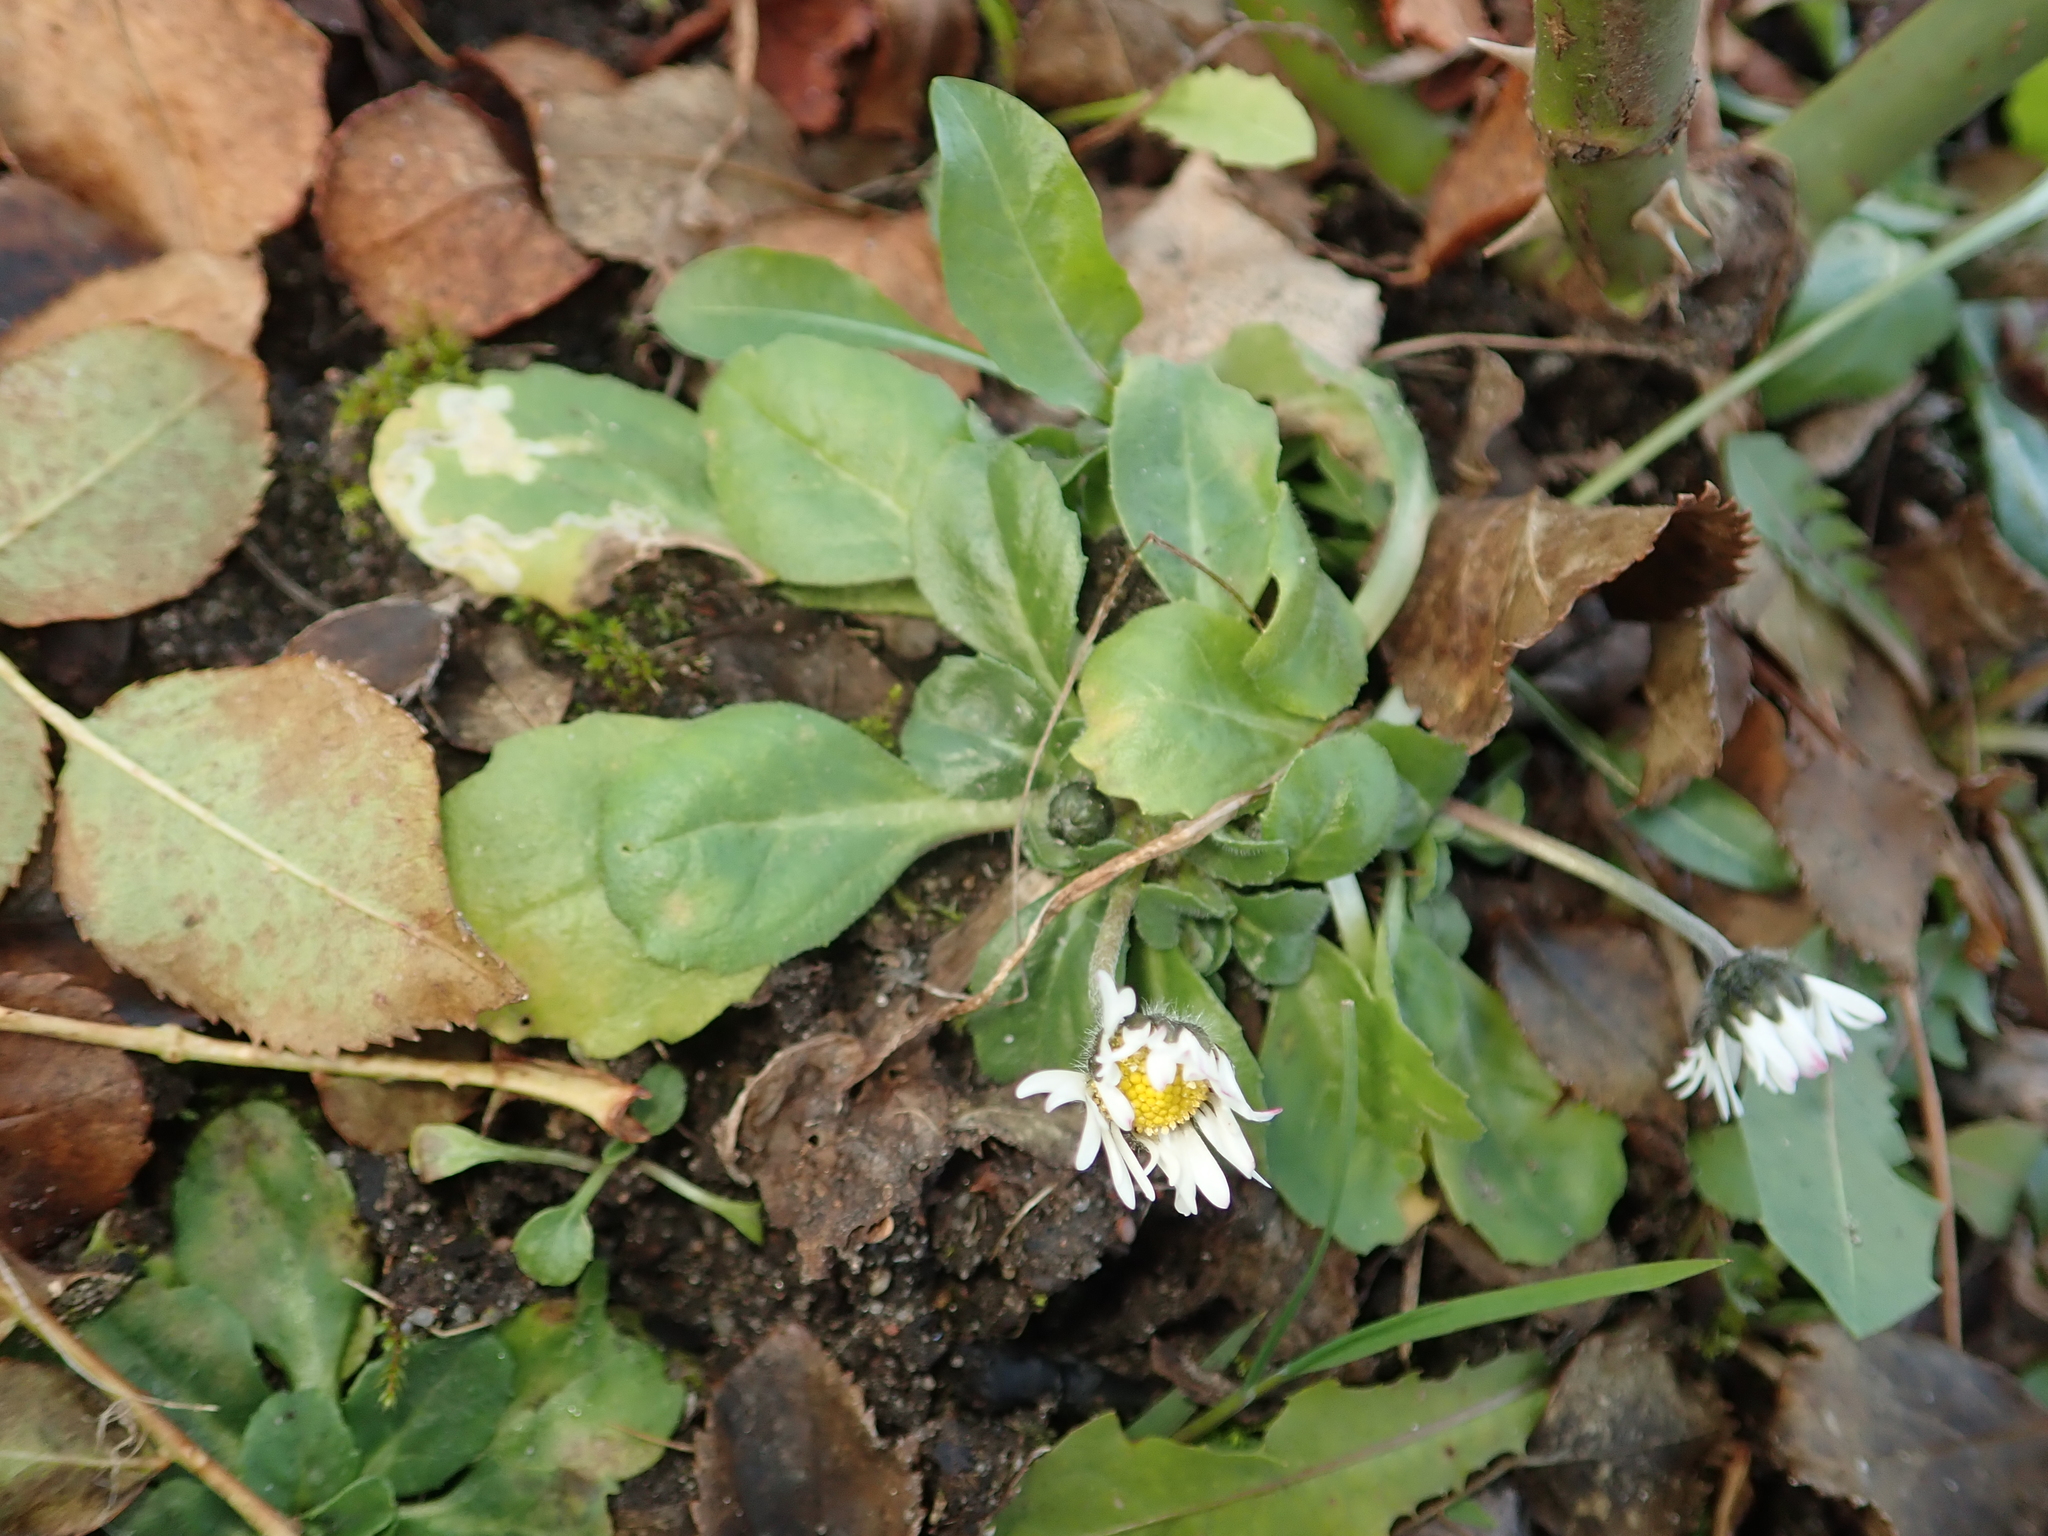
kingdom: Plantae
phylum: Tracheophyta
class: Magnoliopsida
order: Asterales
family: Asteraceae
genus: Bellis
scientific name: Bellis perennis
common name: Lawndaisy
